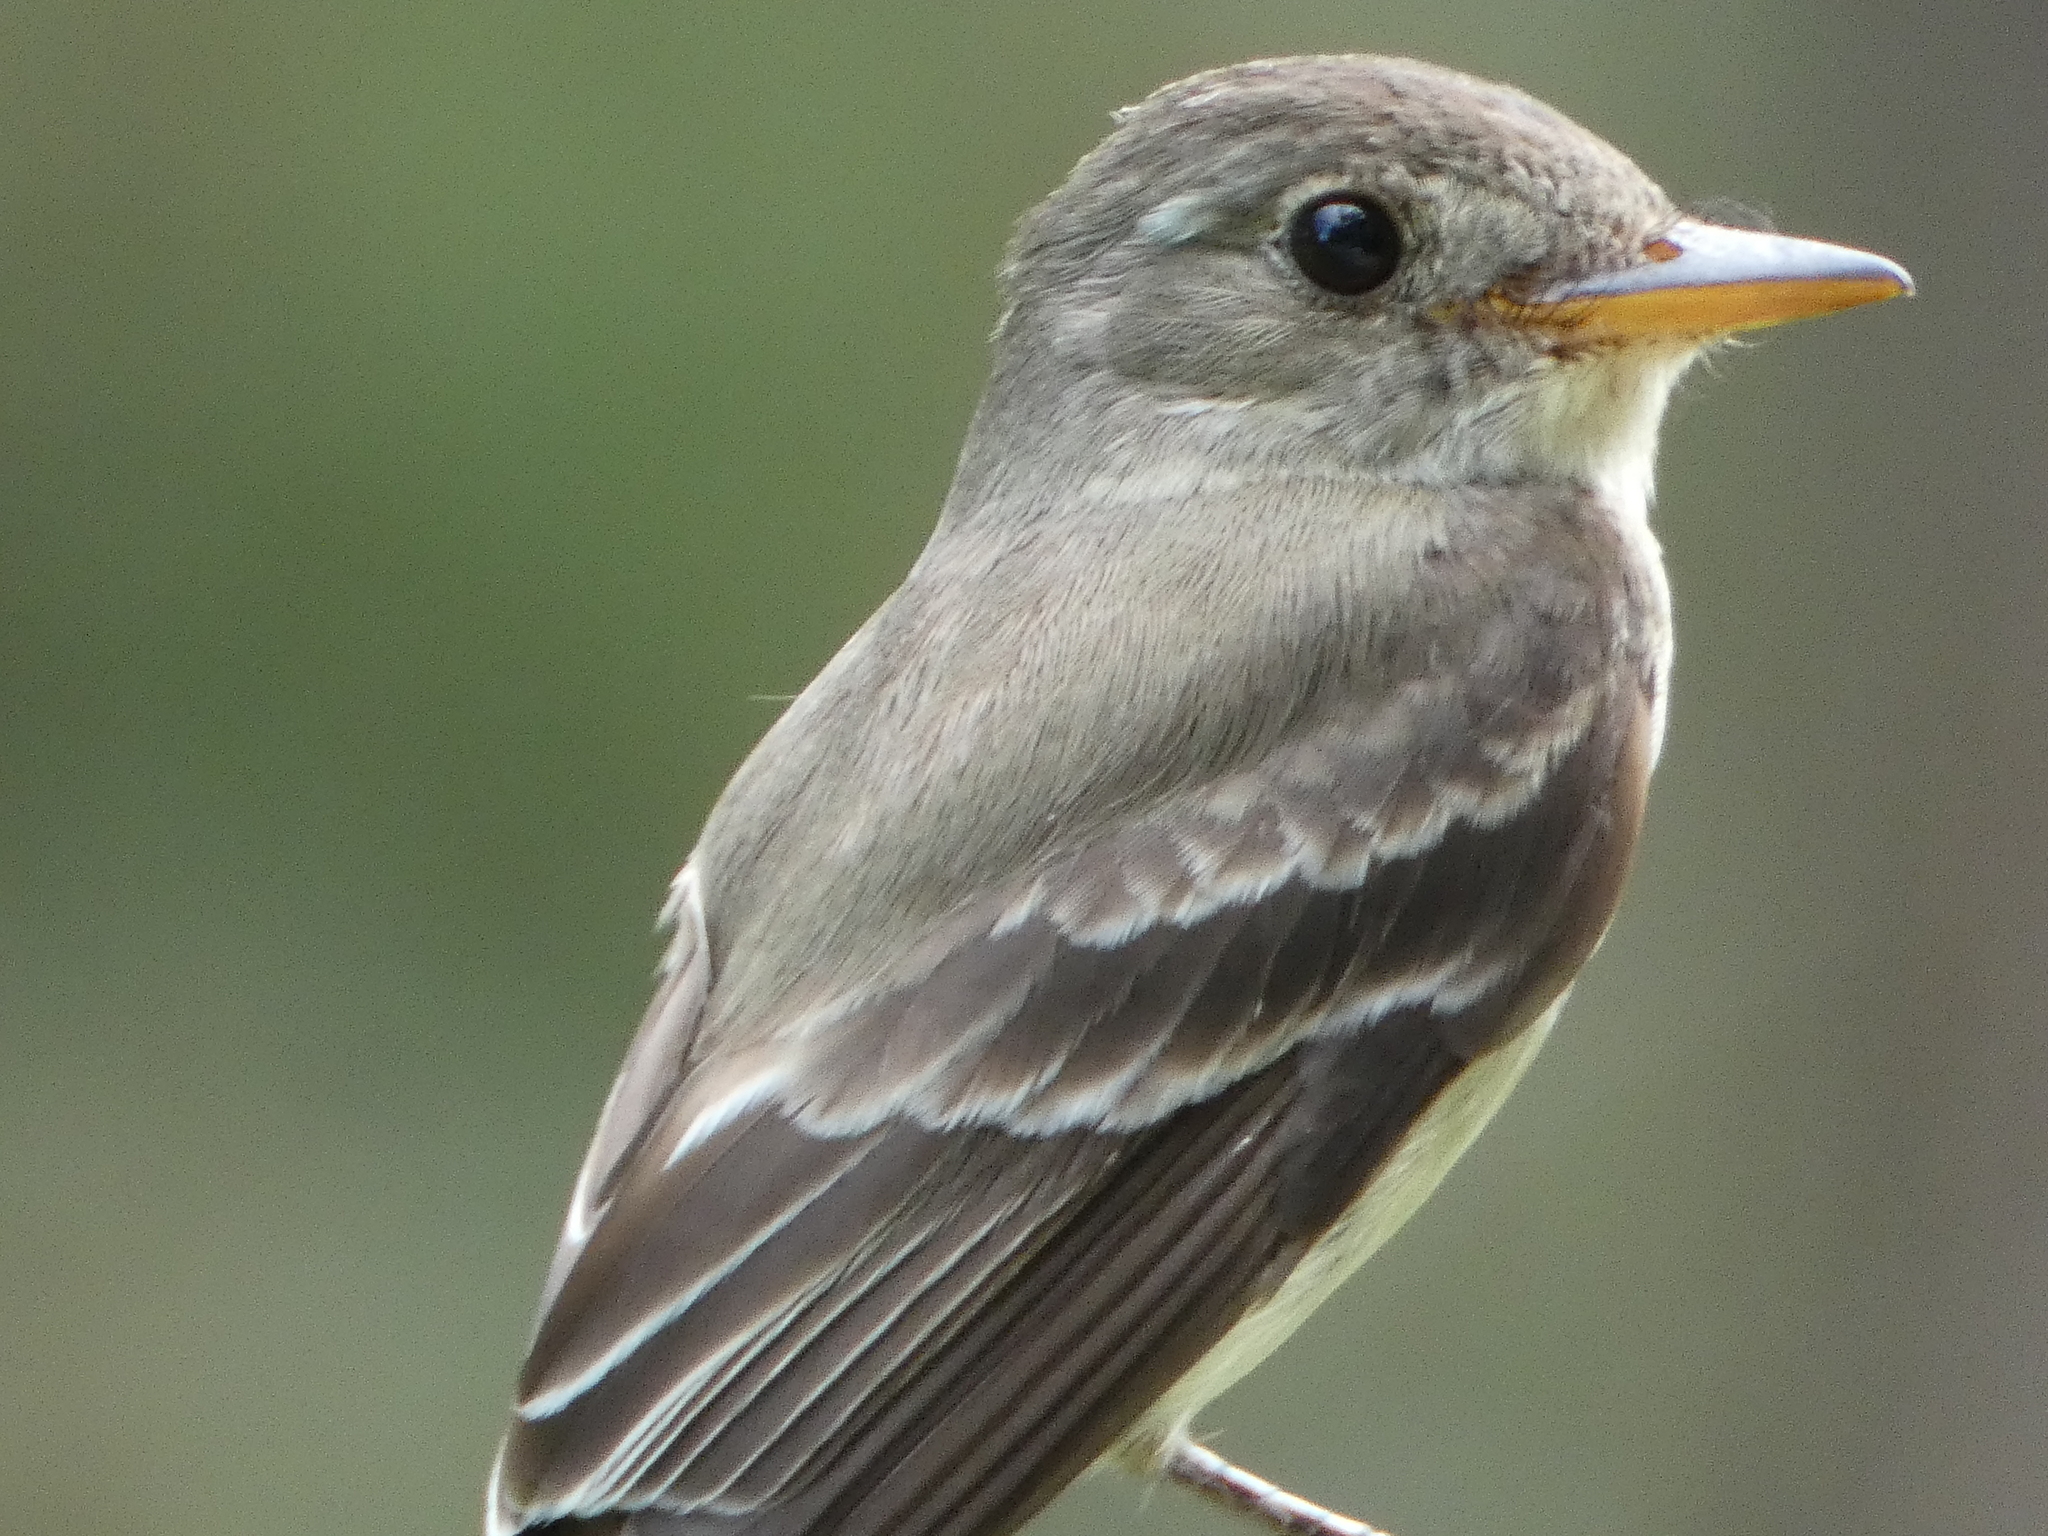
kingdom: Animalia
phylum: Chordata
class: Aves
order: Passeriformes
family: Tyrannidae
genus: Contopus
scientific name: Contopus virens
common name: Eastern wood-pewee
